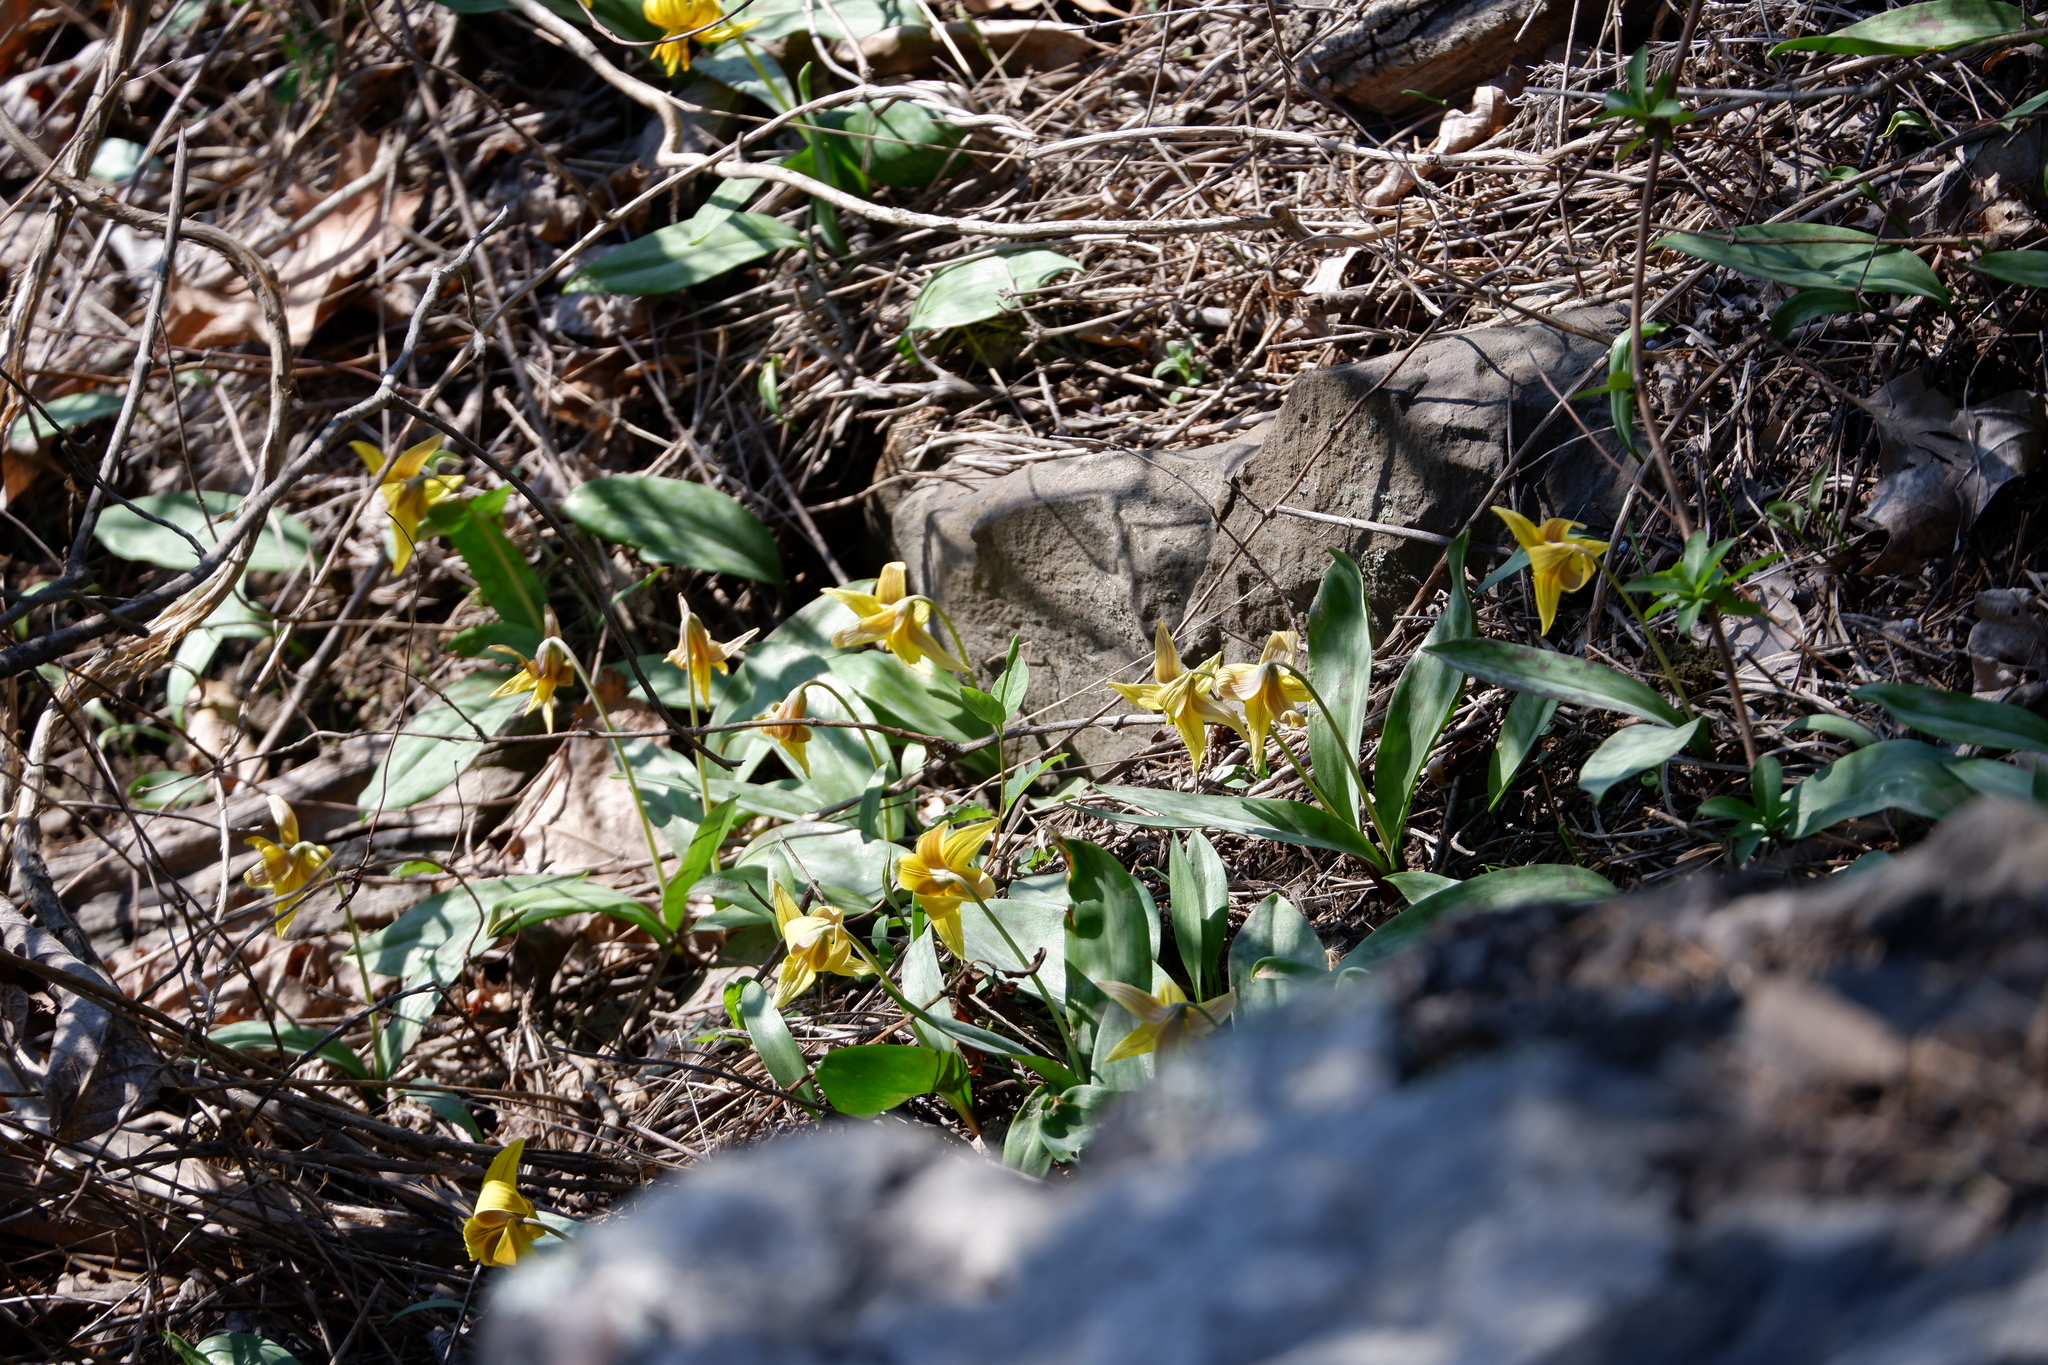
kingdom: Plantae
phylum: Tracheophyta
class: Liliopsida
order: Liliales
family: Liliaceae
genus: Erythronium
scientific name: Erythronium americanum
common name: Yellow adder's-tongue
